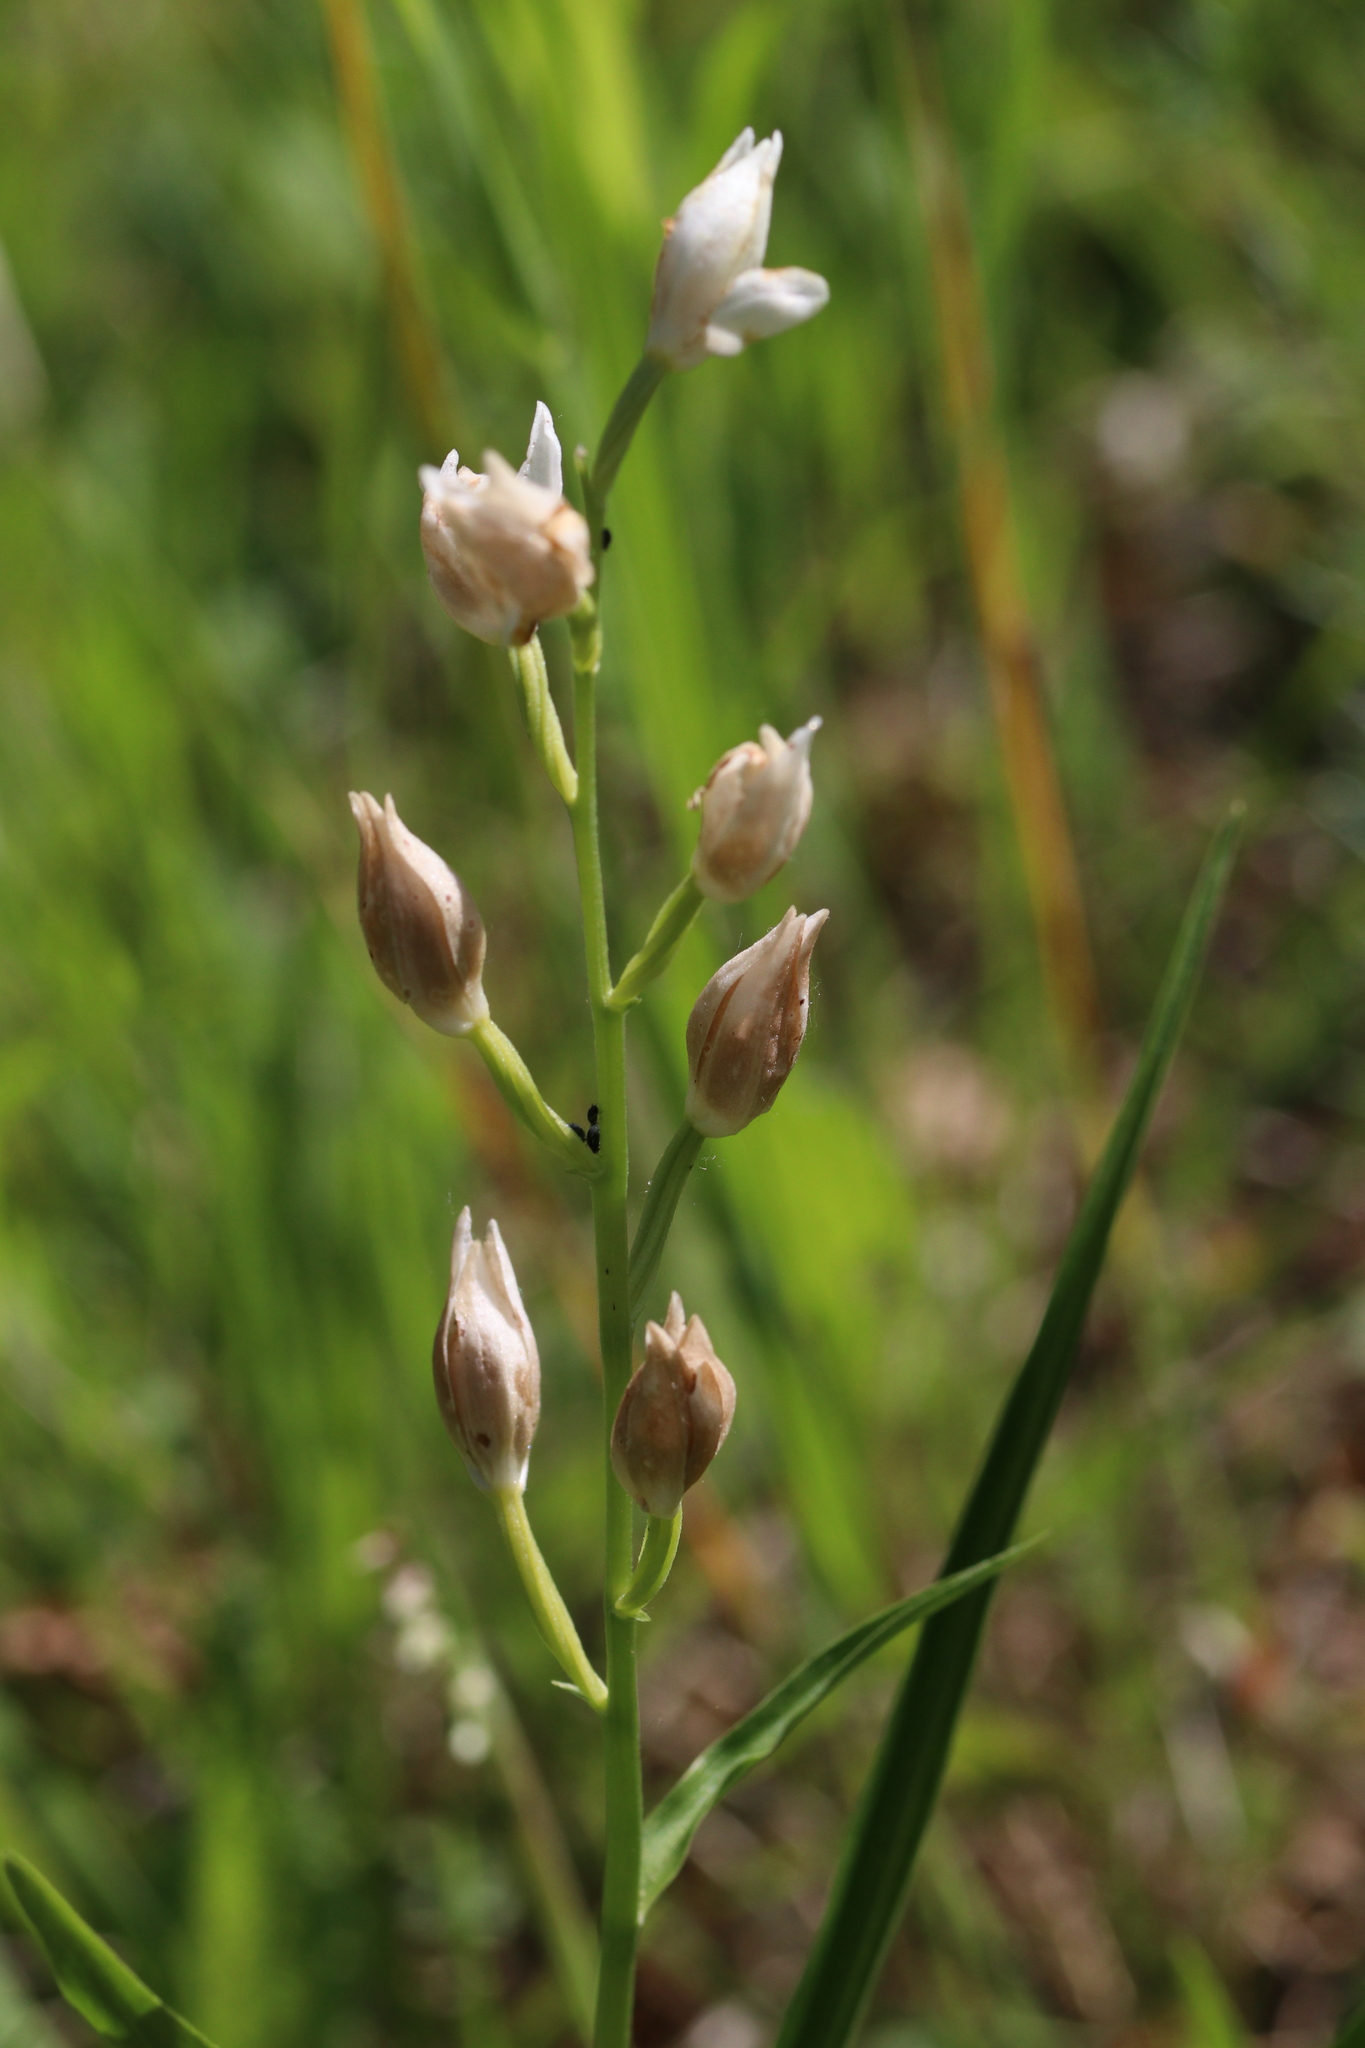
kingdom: Plantae
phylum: Tracheophyta
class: Liliopsida
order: Asparagales
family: Orchidaceae
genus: Cephalanthera
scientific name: Cephalanthera longifolia
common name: Narrow-leaved helleborine
